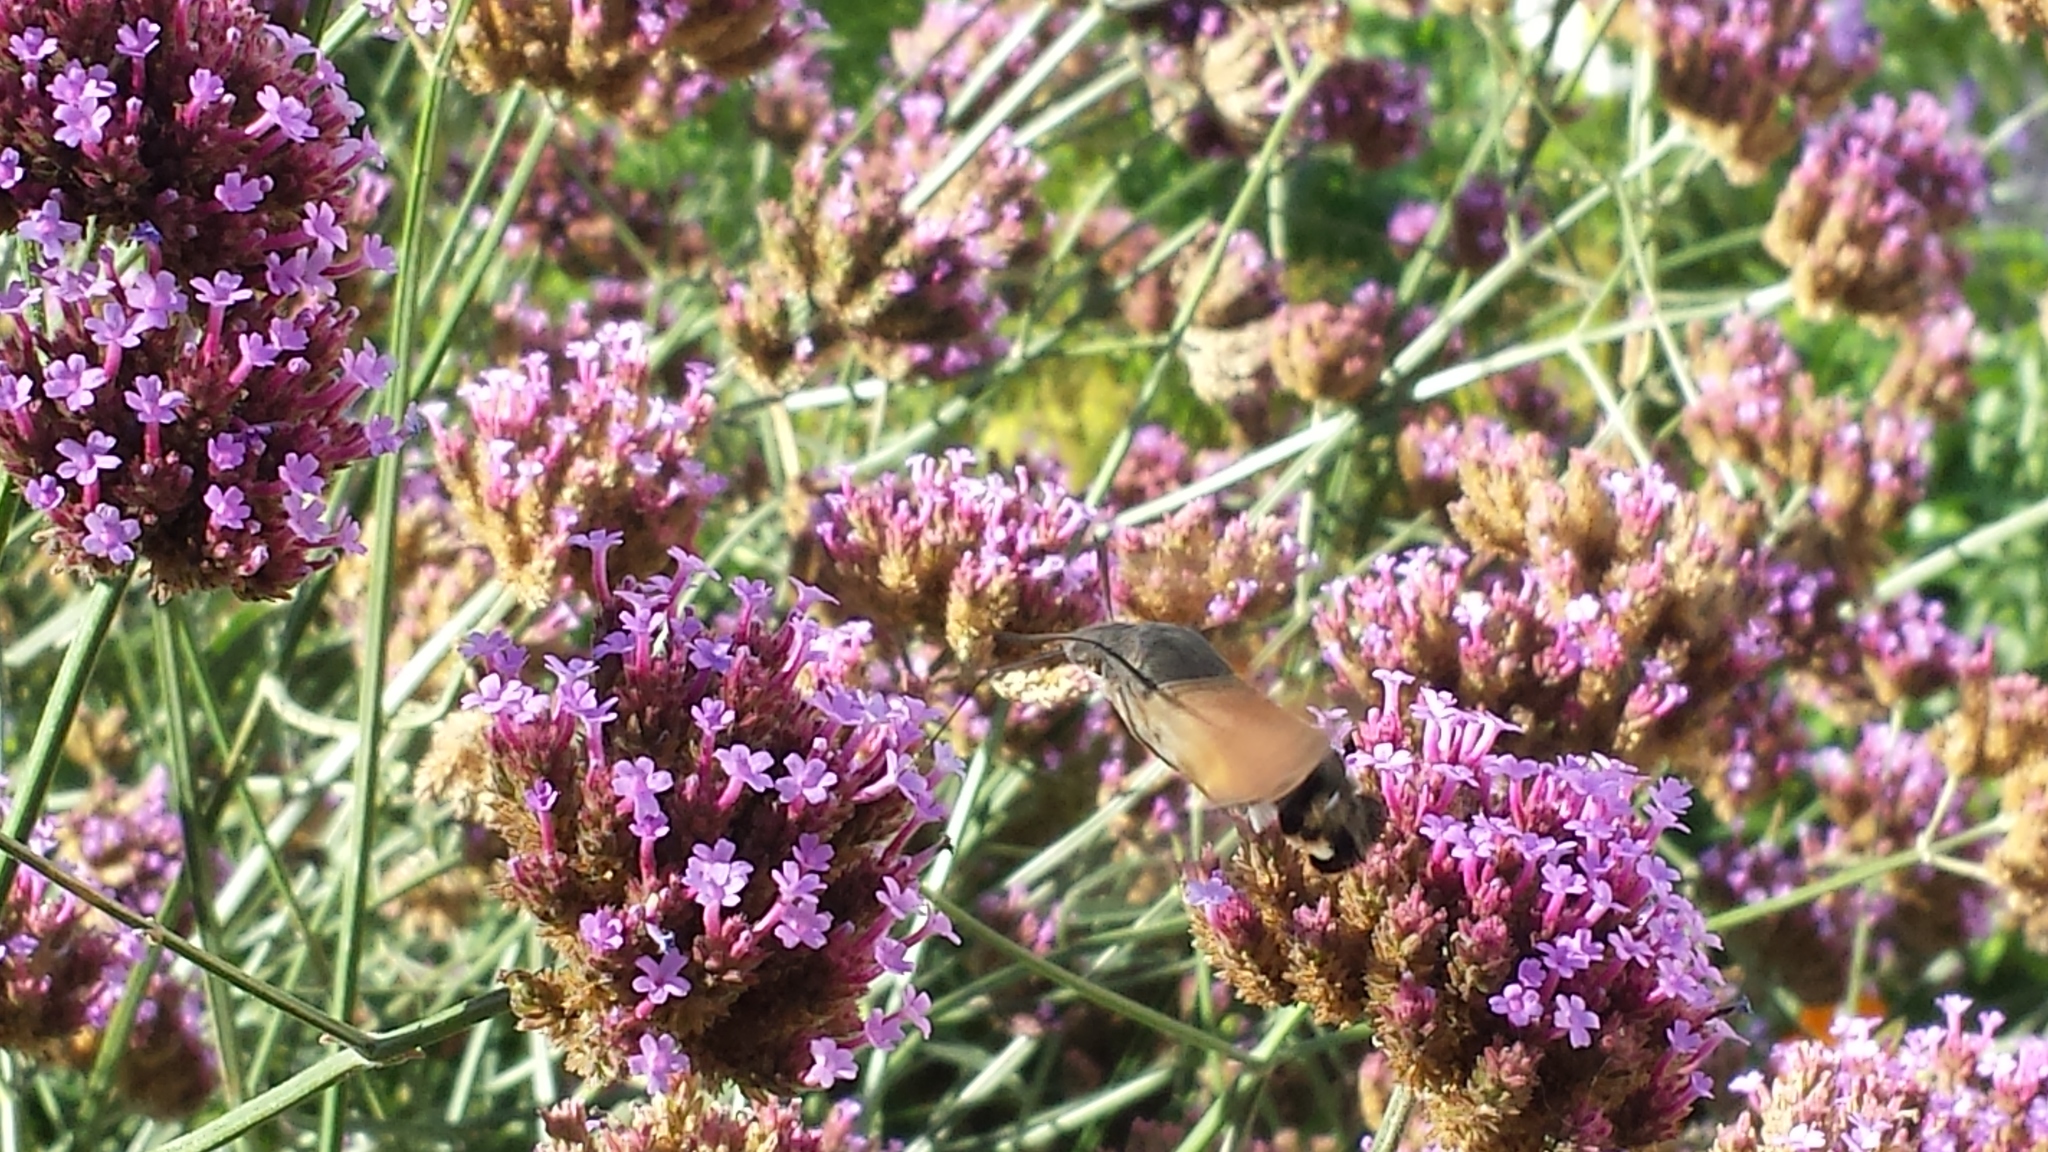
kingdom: Animalia
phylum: Arthropoda
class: Insecta
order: Lepidoptera
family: Sphingidae
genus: Macroglossum
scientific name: Macroglossum stellatarum
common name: Humming-bird hawk-moth
